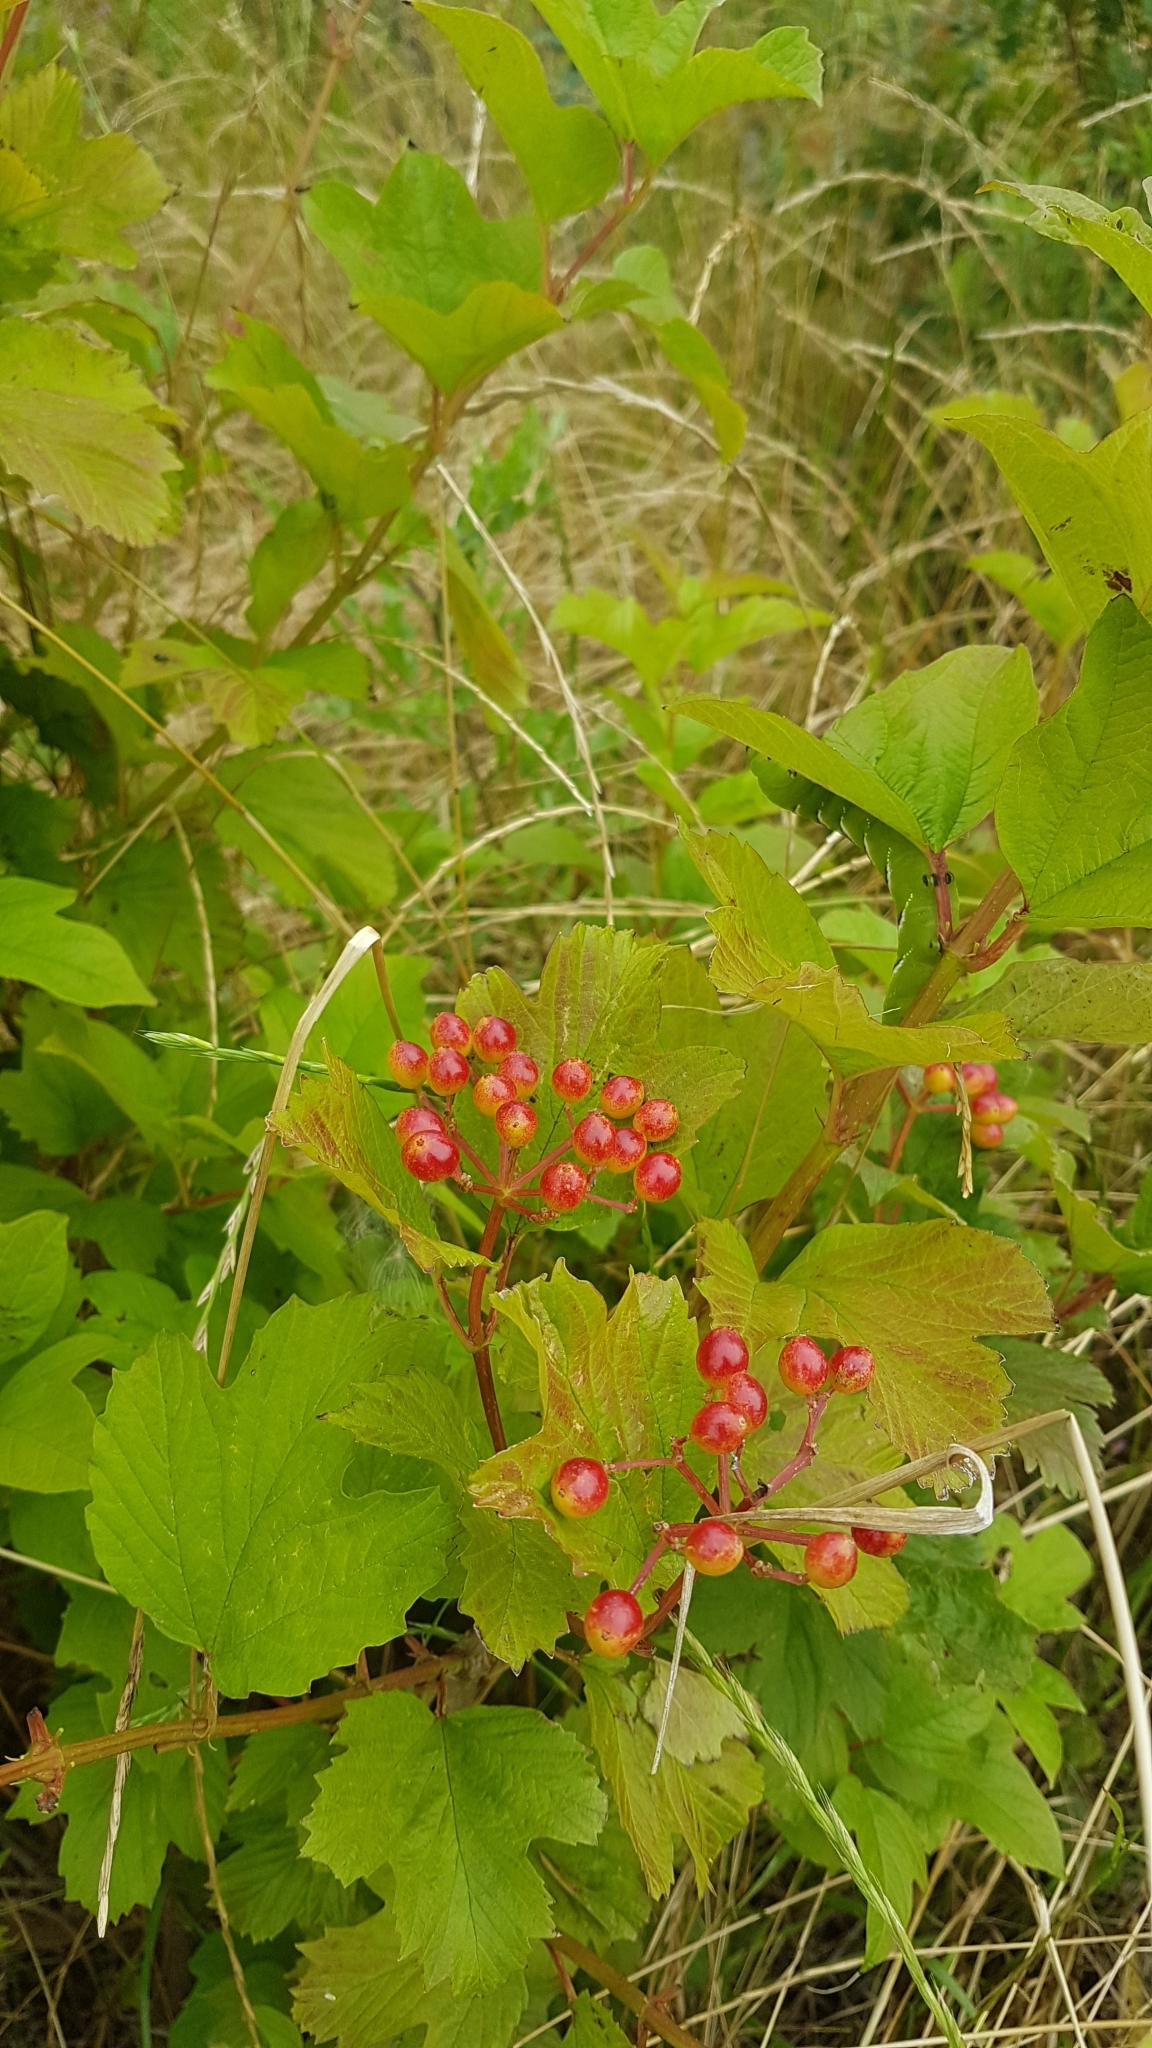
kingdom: Plantae
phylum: Tracheophyta
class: Magnoliopsida
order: Dipsacales
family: Viburnaceae
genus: Viburnum
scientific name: Viburnum opulus
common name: Guelder-rose
